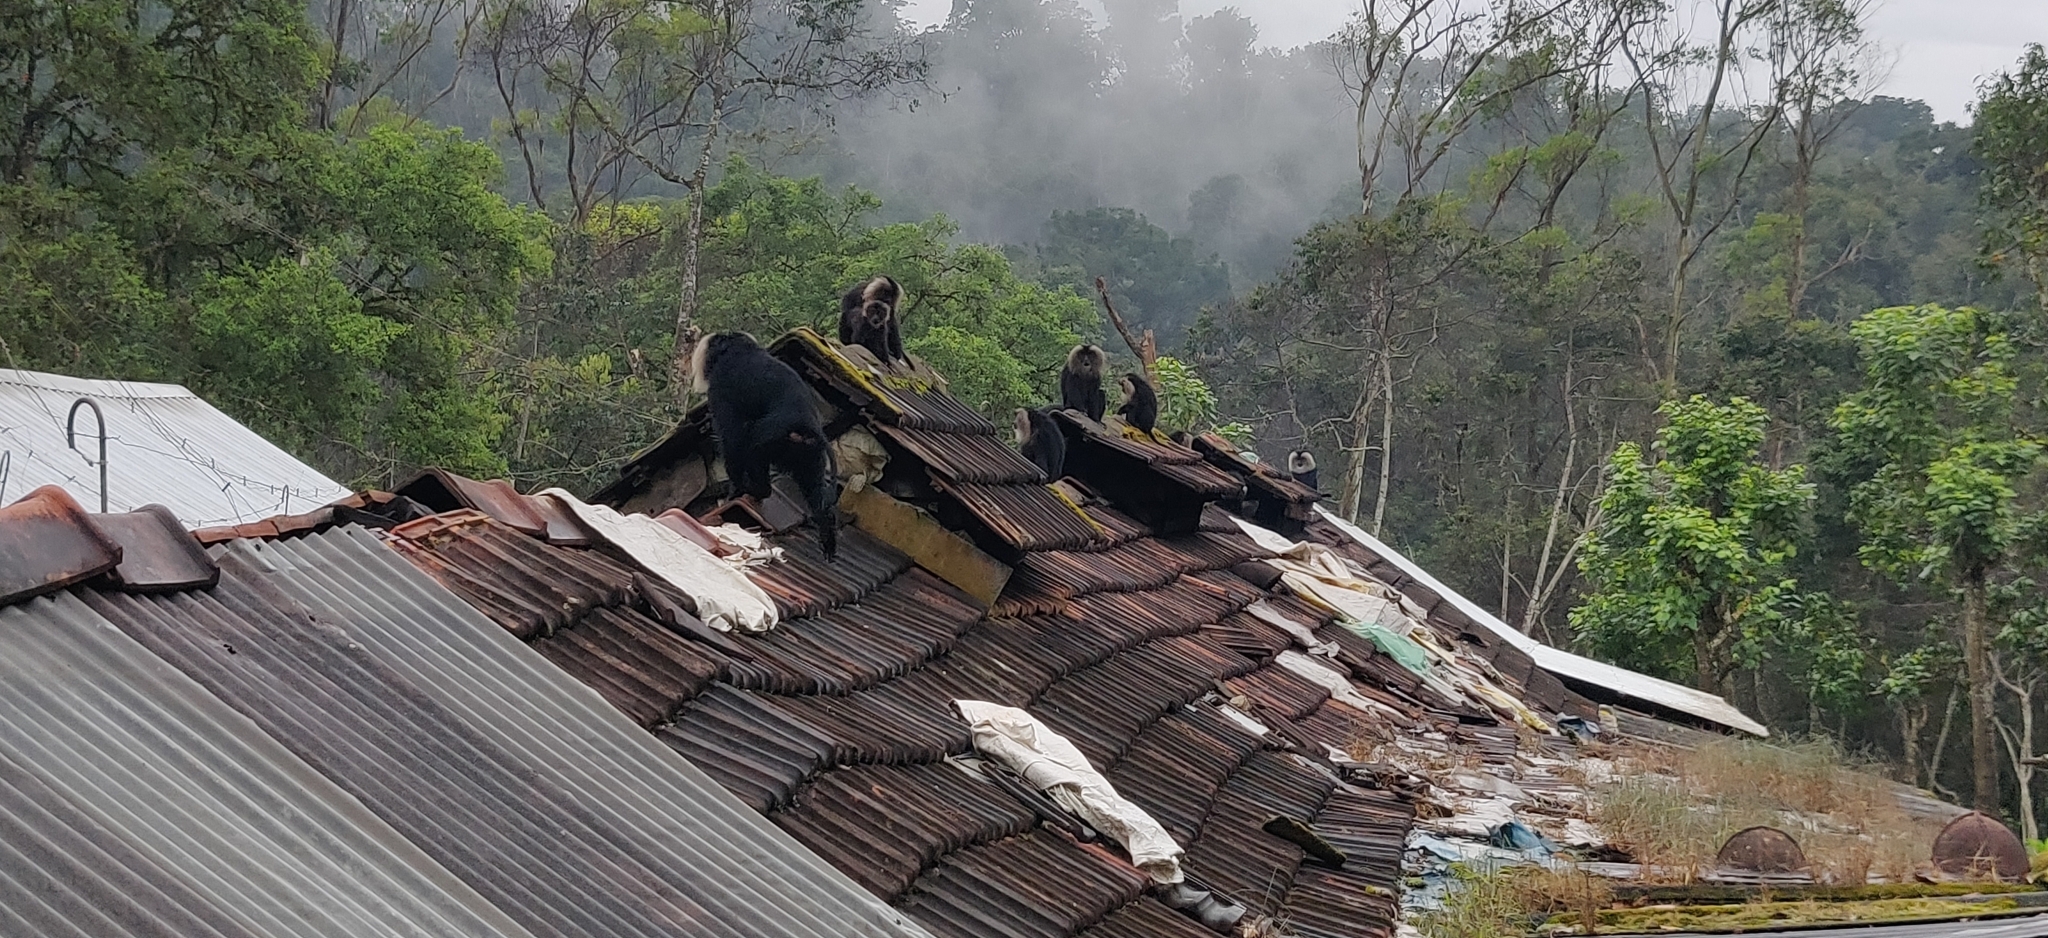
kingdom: Animalia
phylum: Chordata
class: Mammalia
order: Primates
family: Cercopithecidae
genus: Macaca
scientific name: Macaca silenus
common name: Lion-tailed macaque
